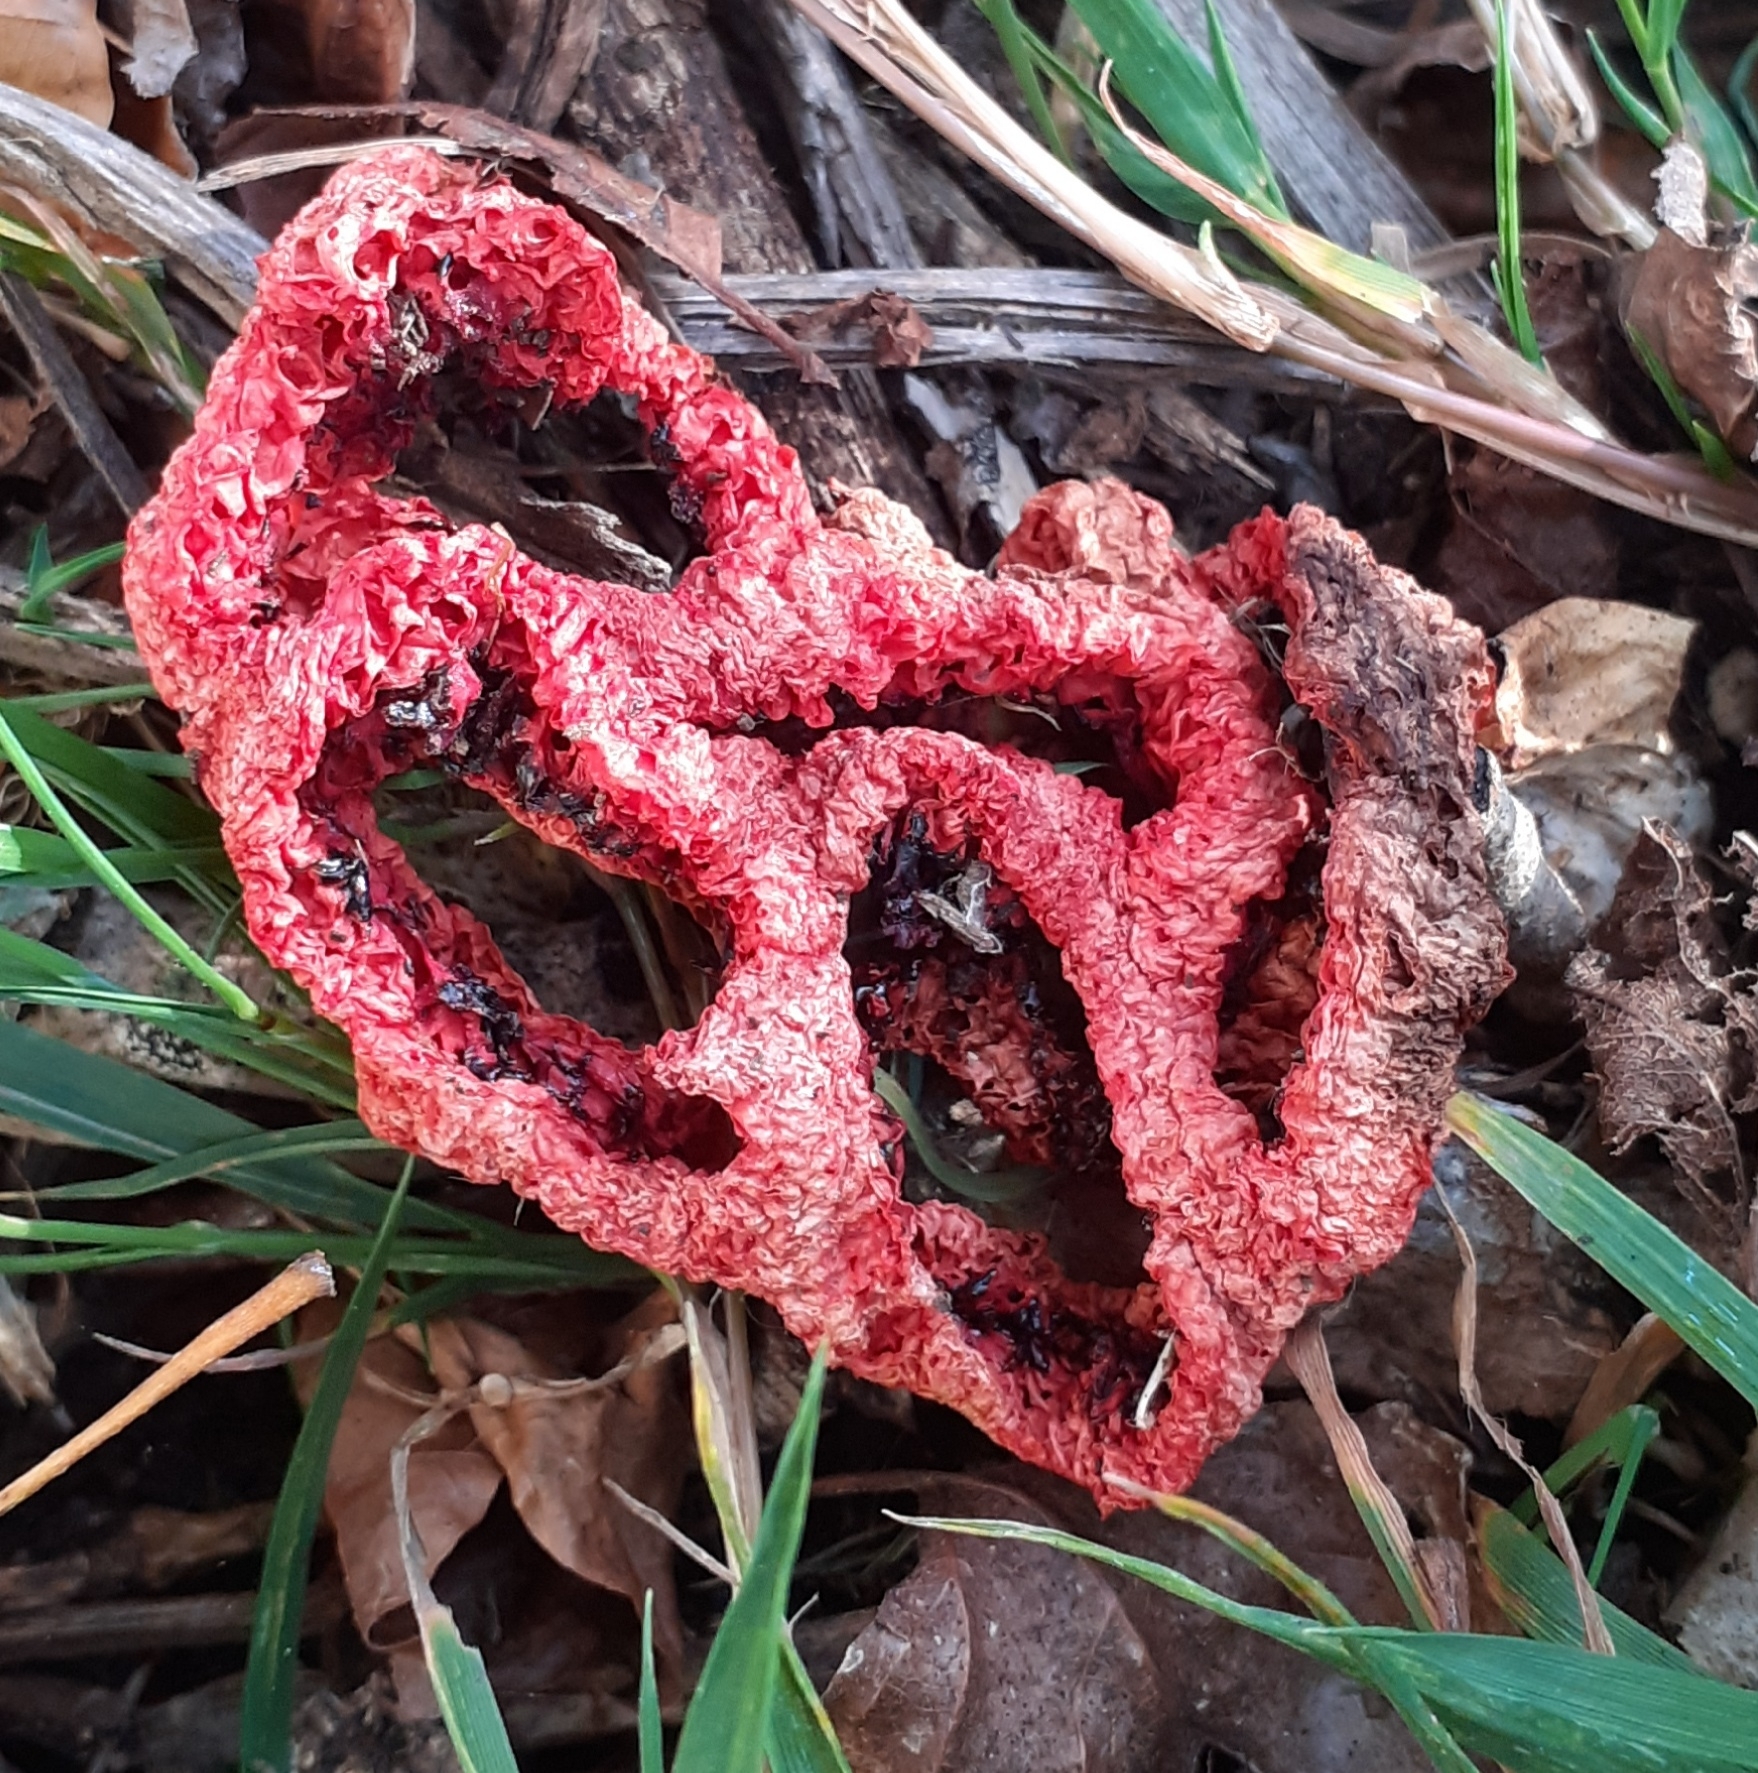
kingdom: Fungi
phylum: Basidiomycota
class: Agaricomycetes
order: Phallales
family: Phallaceae
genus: Clathrus
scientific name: Clathrus ruber
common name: Red cage
